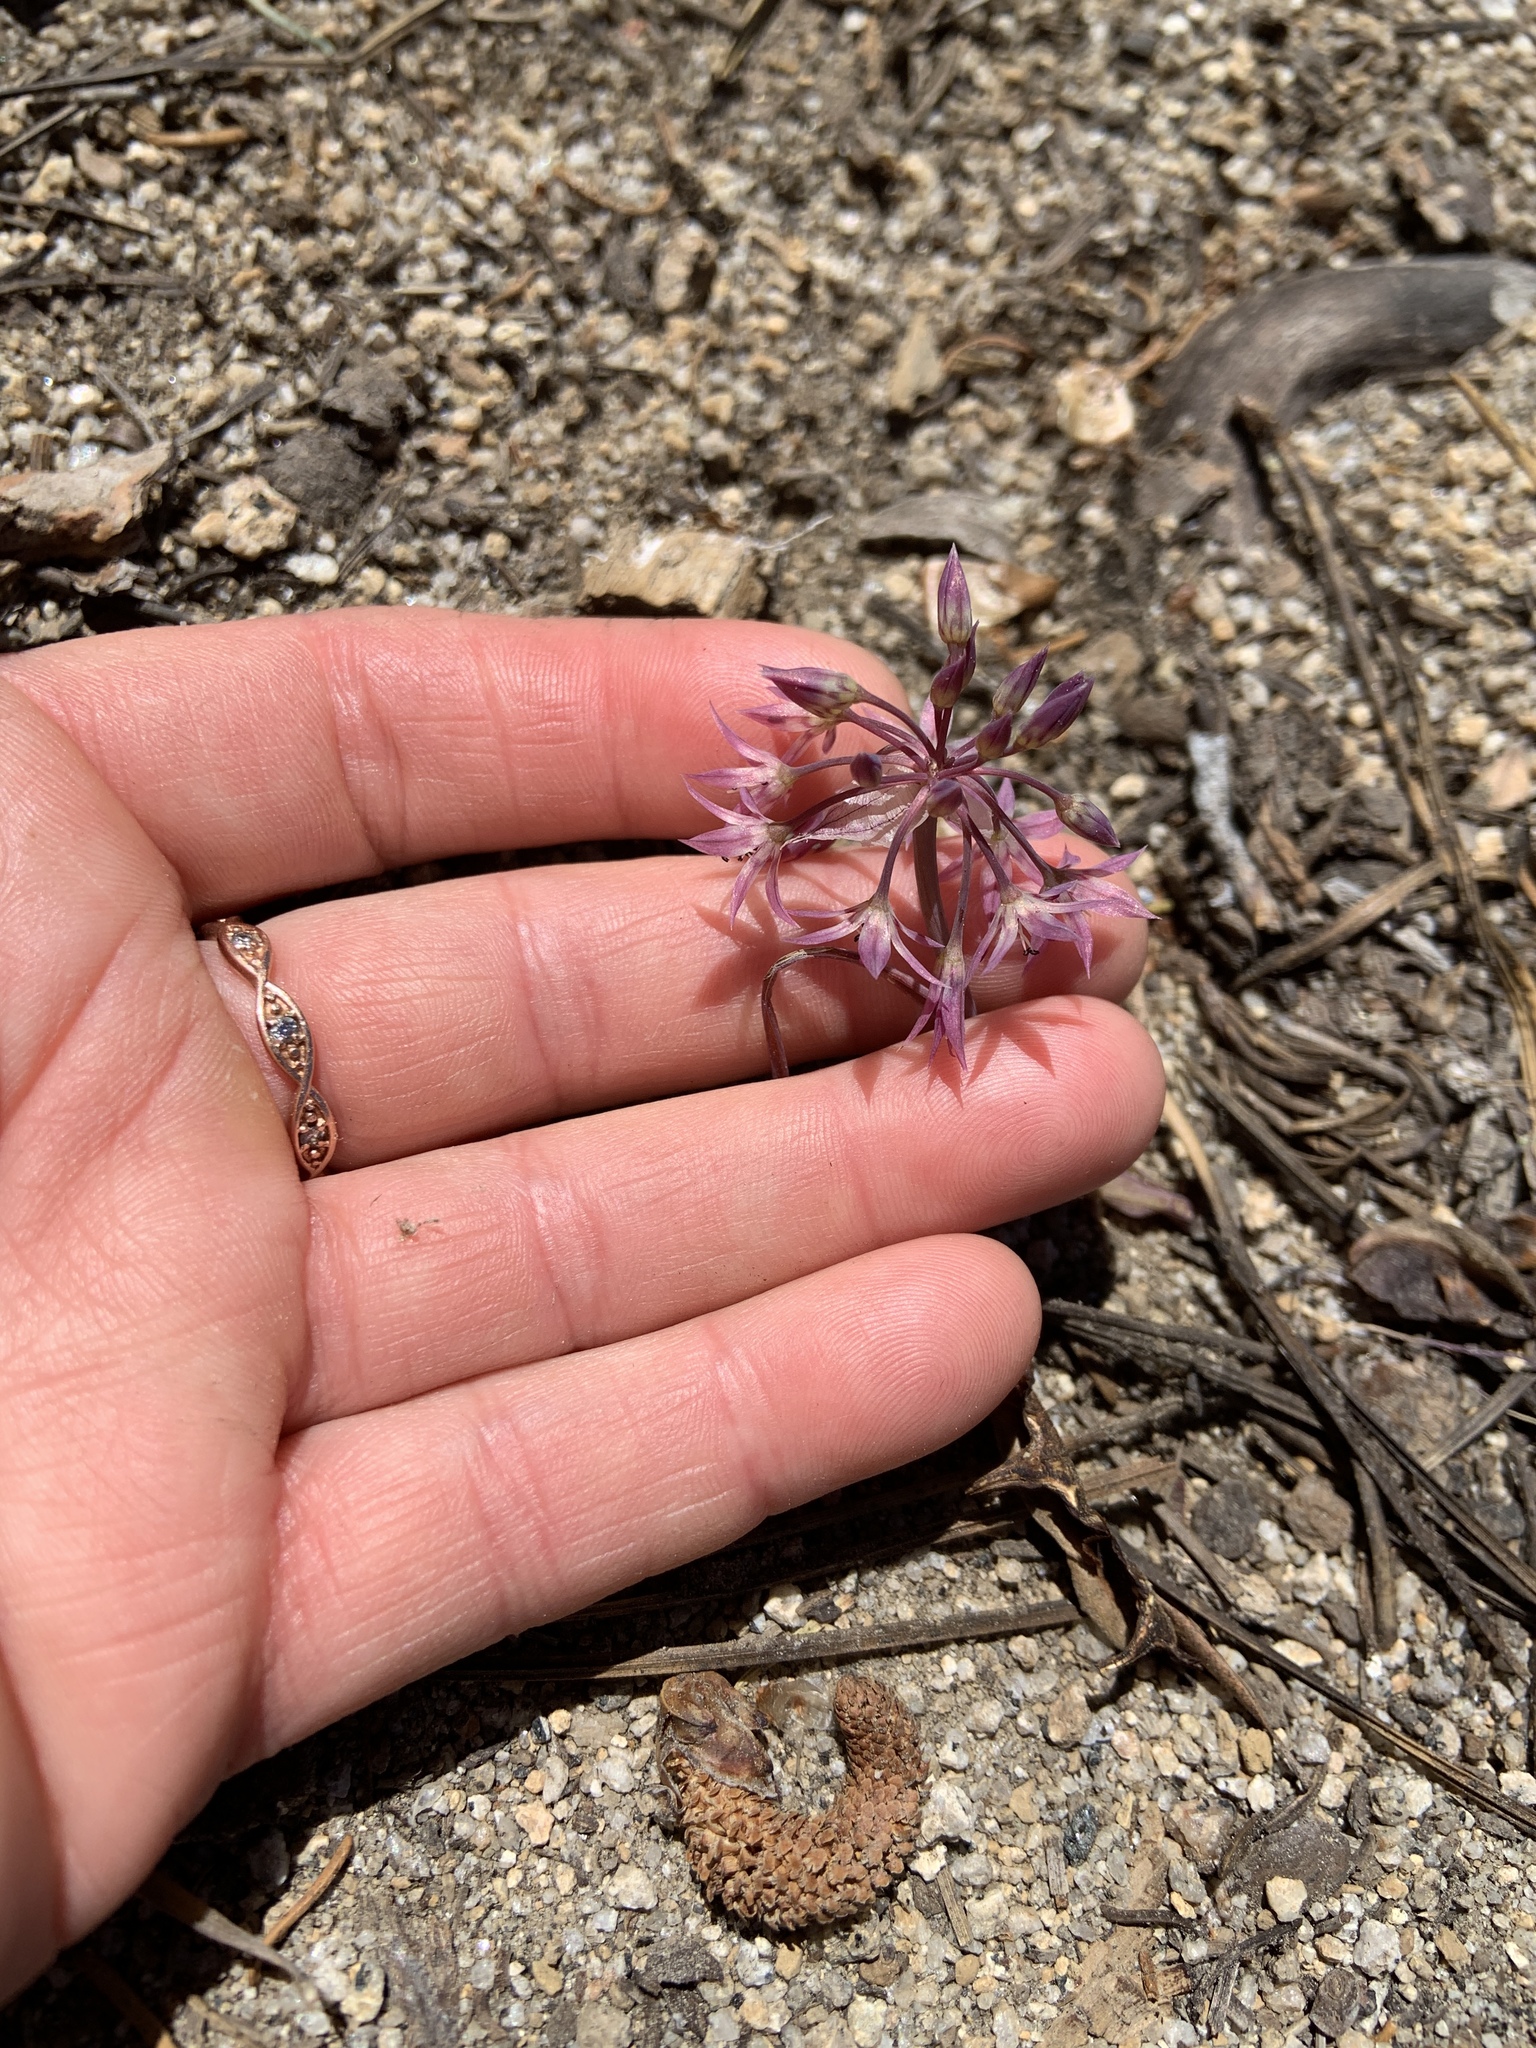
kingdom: Plantae
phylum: Tracheophyta
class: Liliopsida
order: Asparagales
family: Amaryllidaceae
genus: Allium
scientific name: Allium campanulatum
